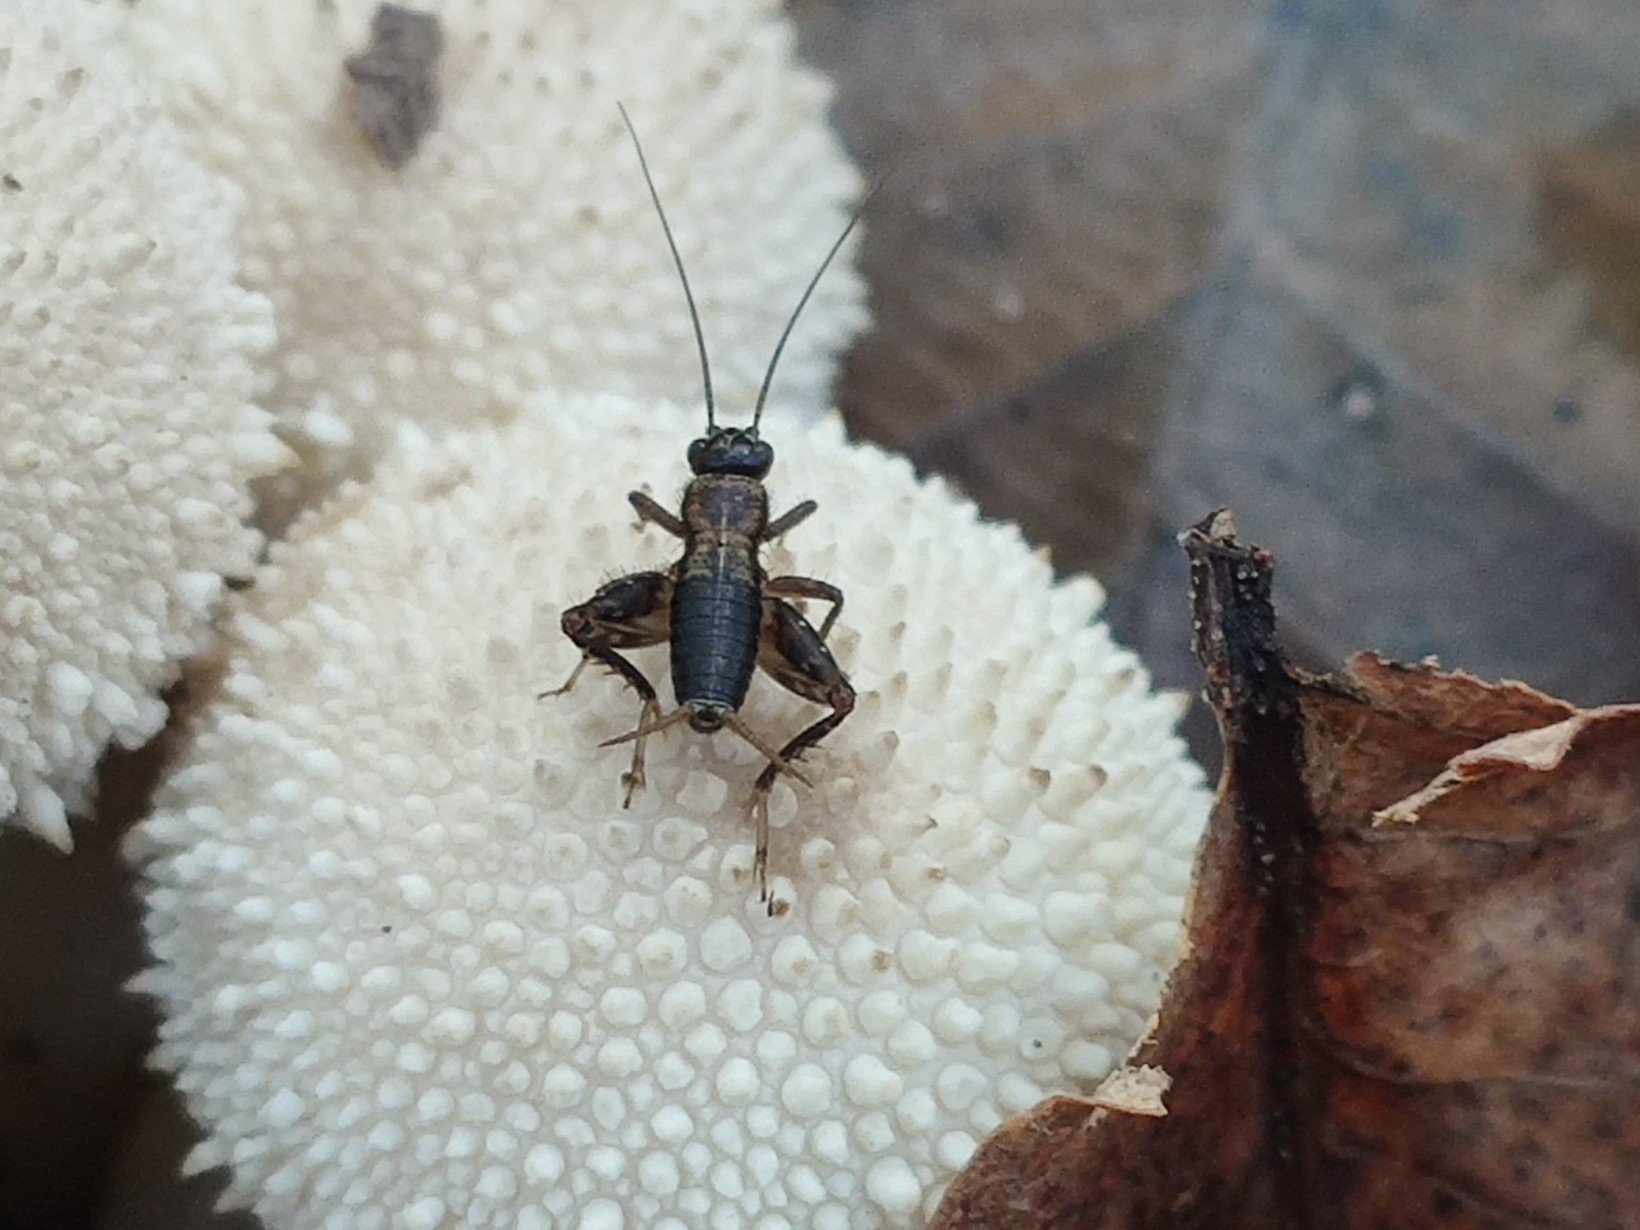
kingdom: Animalia
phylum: Arthropoda
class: Insecta
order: Orthoptera
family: Trigonidiidae
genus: Nemobius
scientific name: Nemobius sylvestris
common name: Wood-cricket
